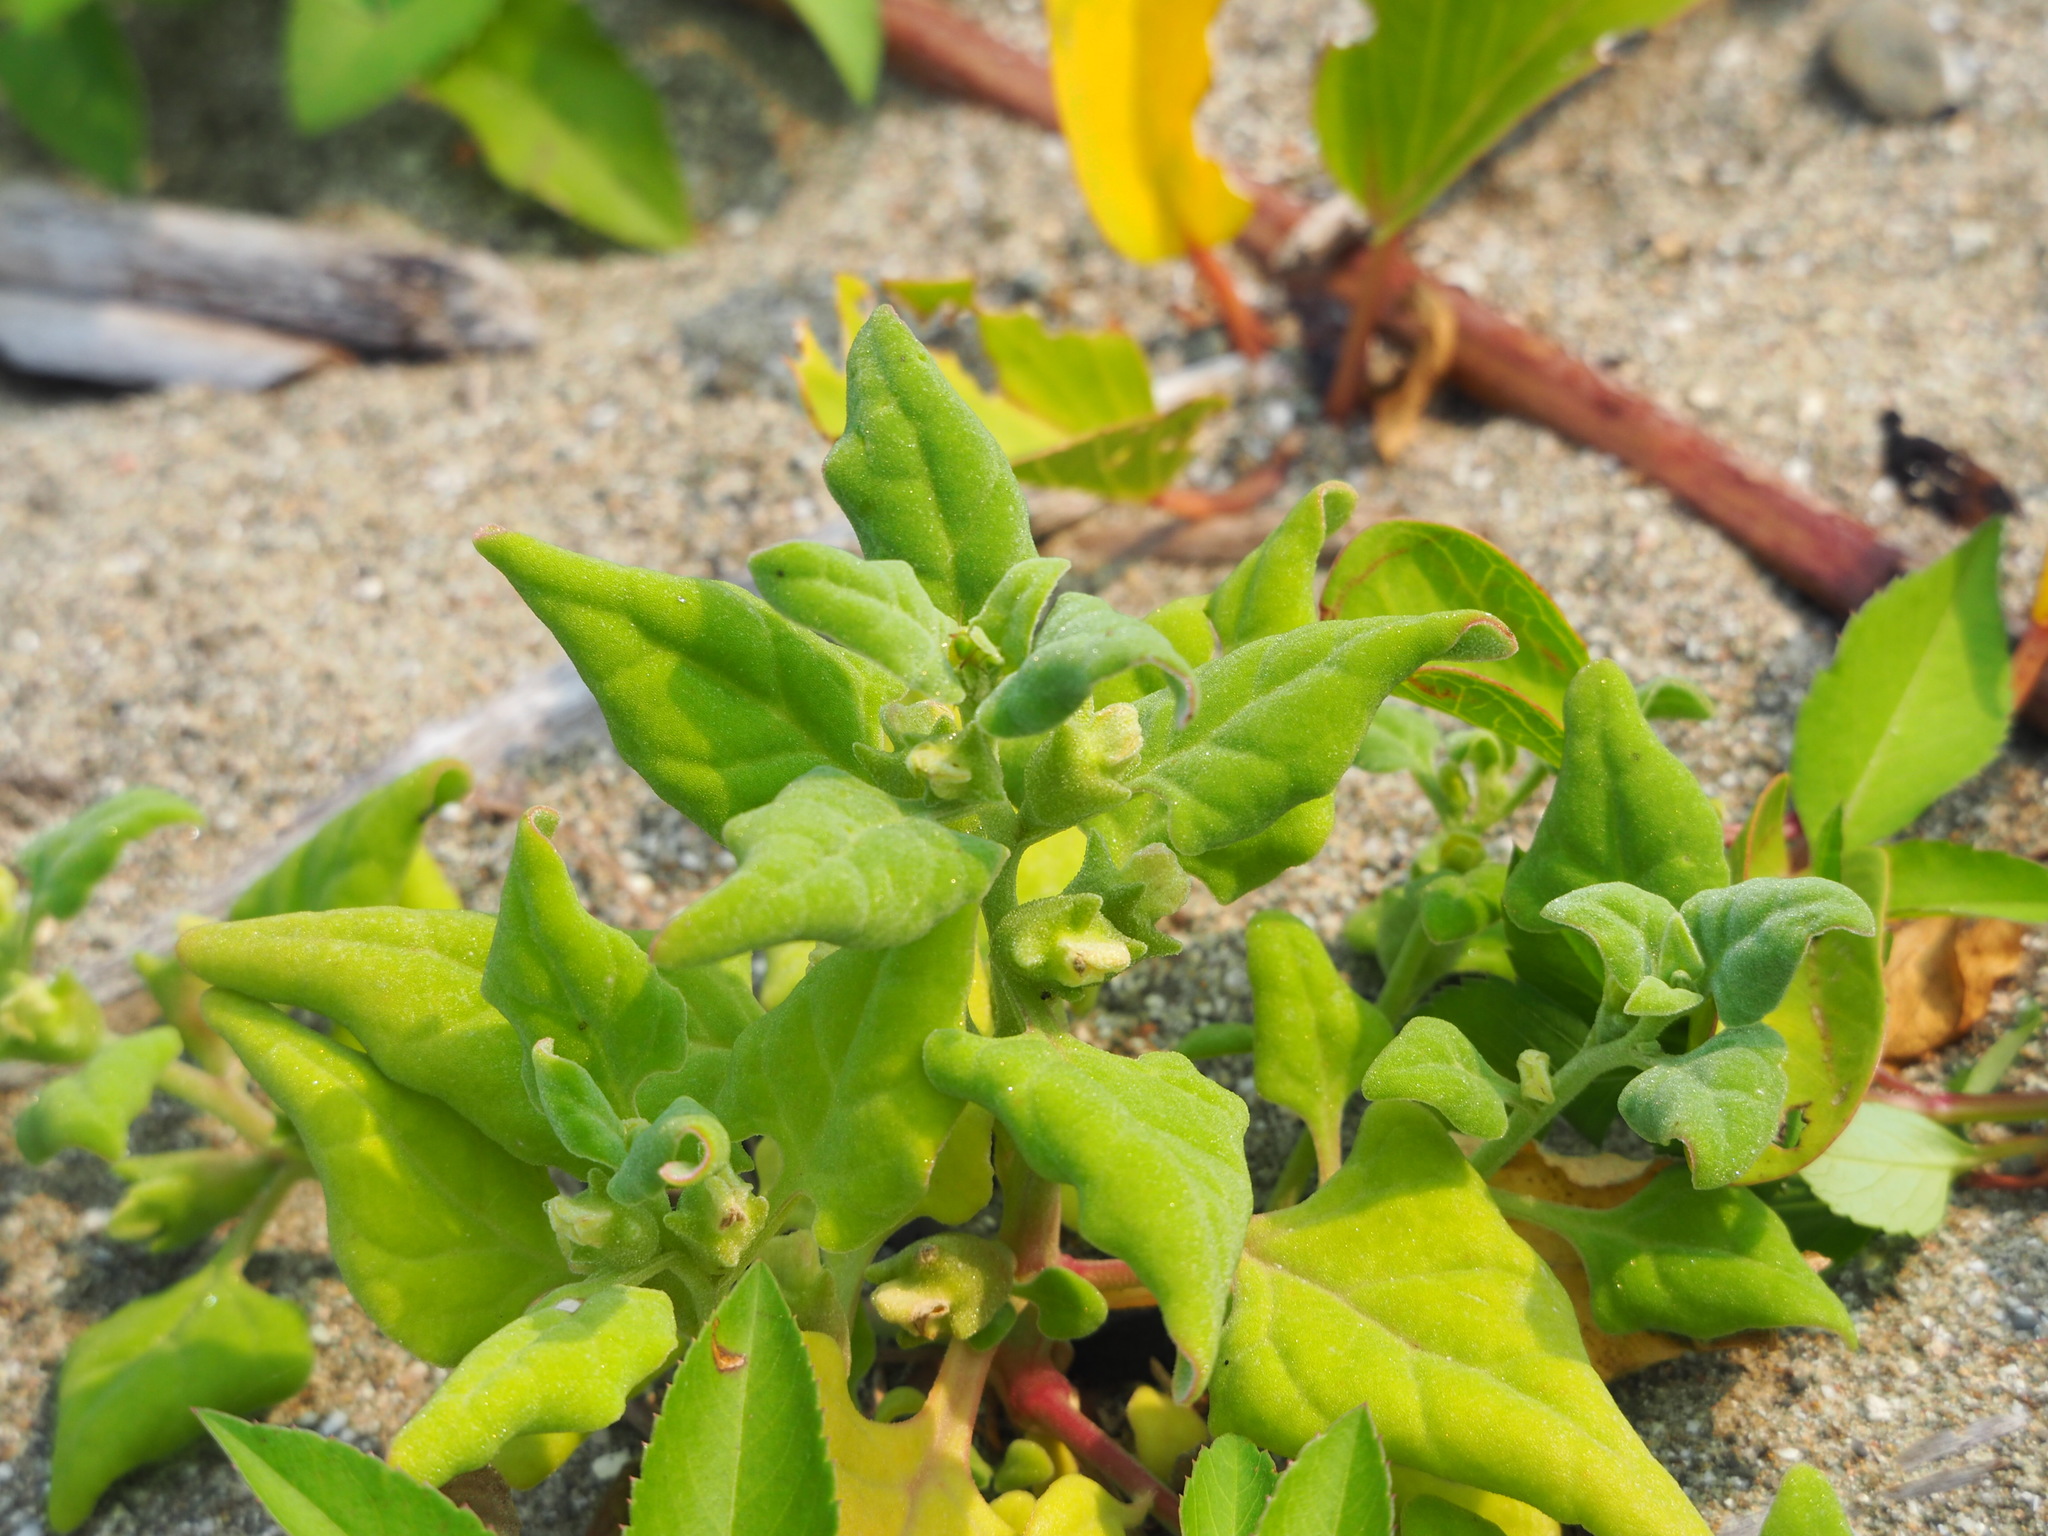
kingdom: Plantae
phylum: Tracheophyta
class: Magnoliopsida
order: Caryophyllales
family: Aizoaceae
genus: Tetragonia
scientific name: Tetragonia tetragonoides
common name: New zealand-spinach
